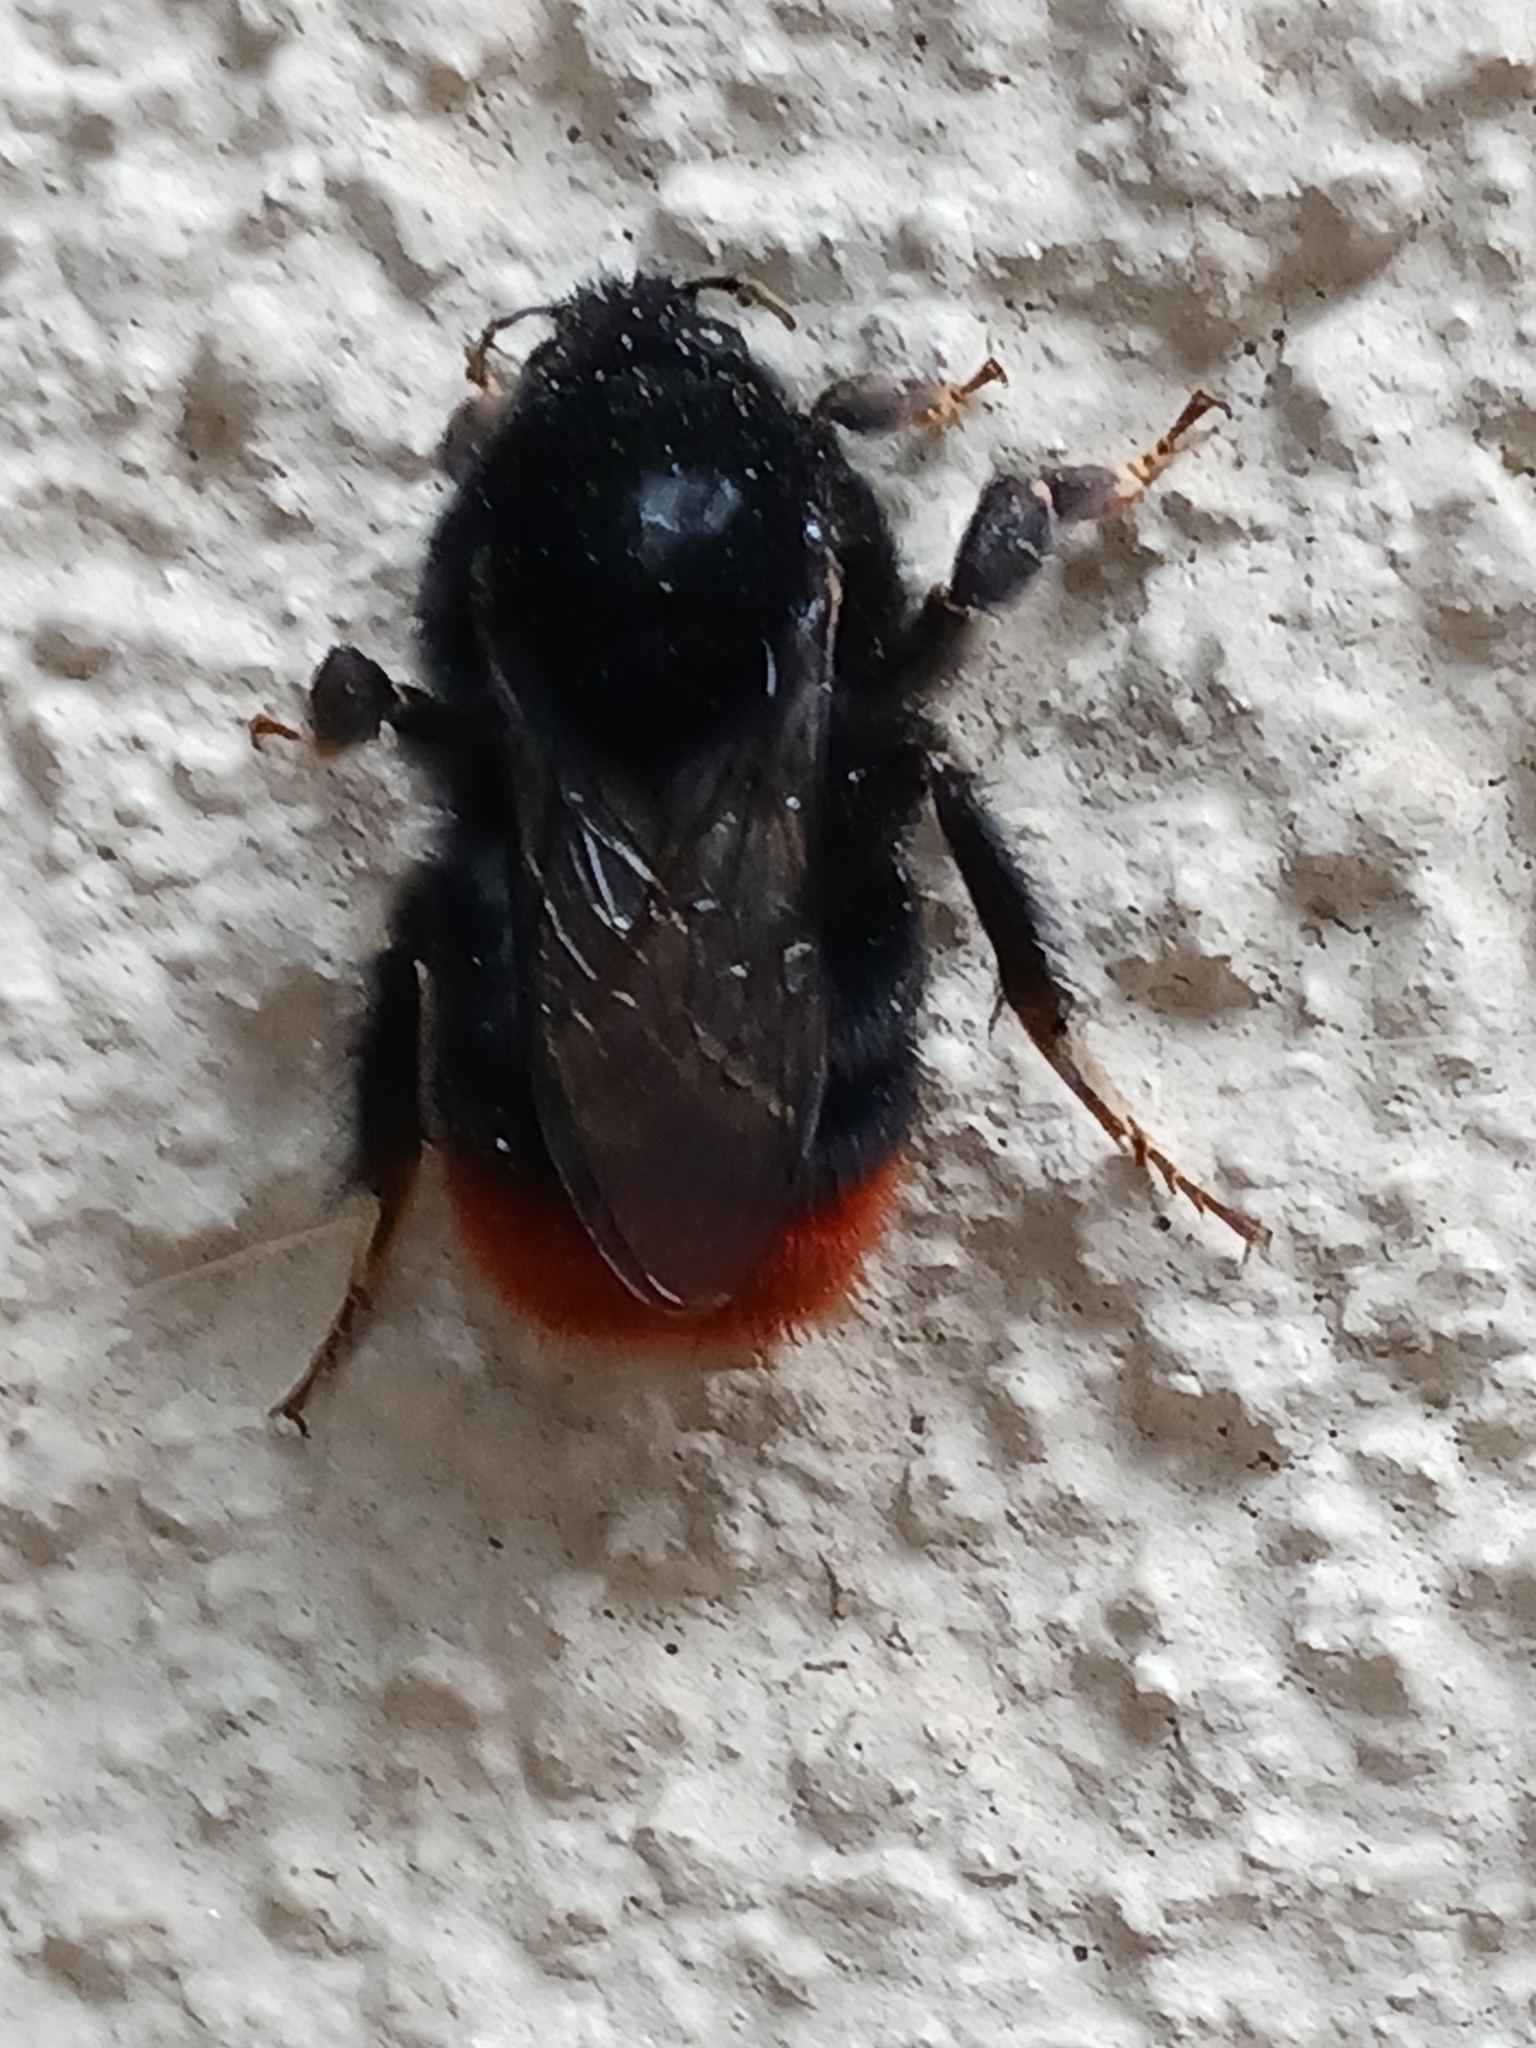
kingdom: Animalia
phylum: Arthropoda
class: Insecta
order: Hymenoptera
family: Apidae
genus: Bombus
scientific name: Bombus lapidarius
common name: Large red-tailed humble-bee
